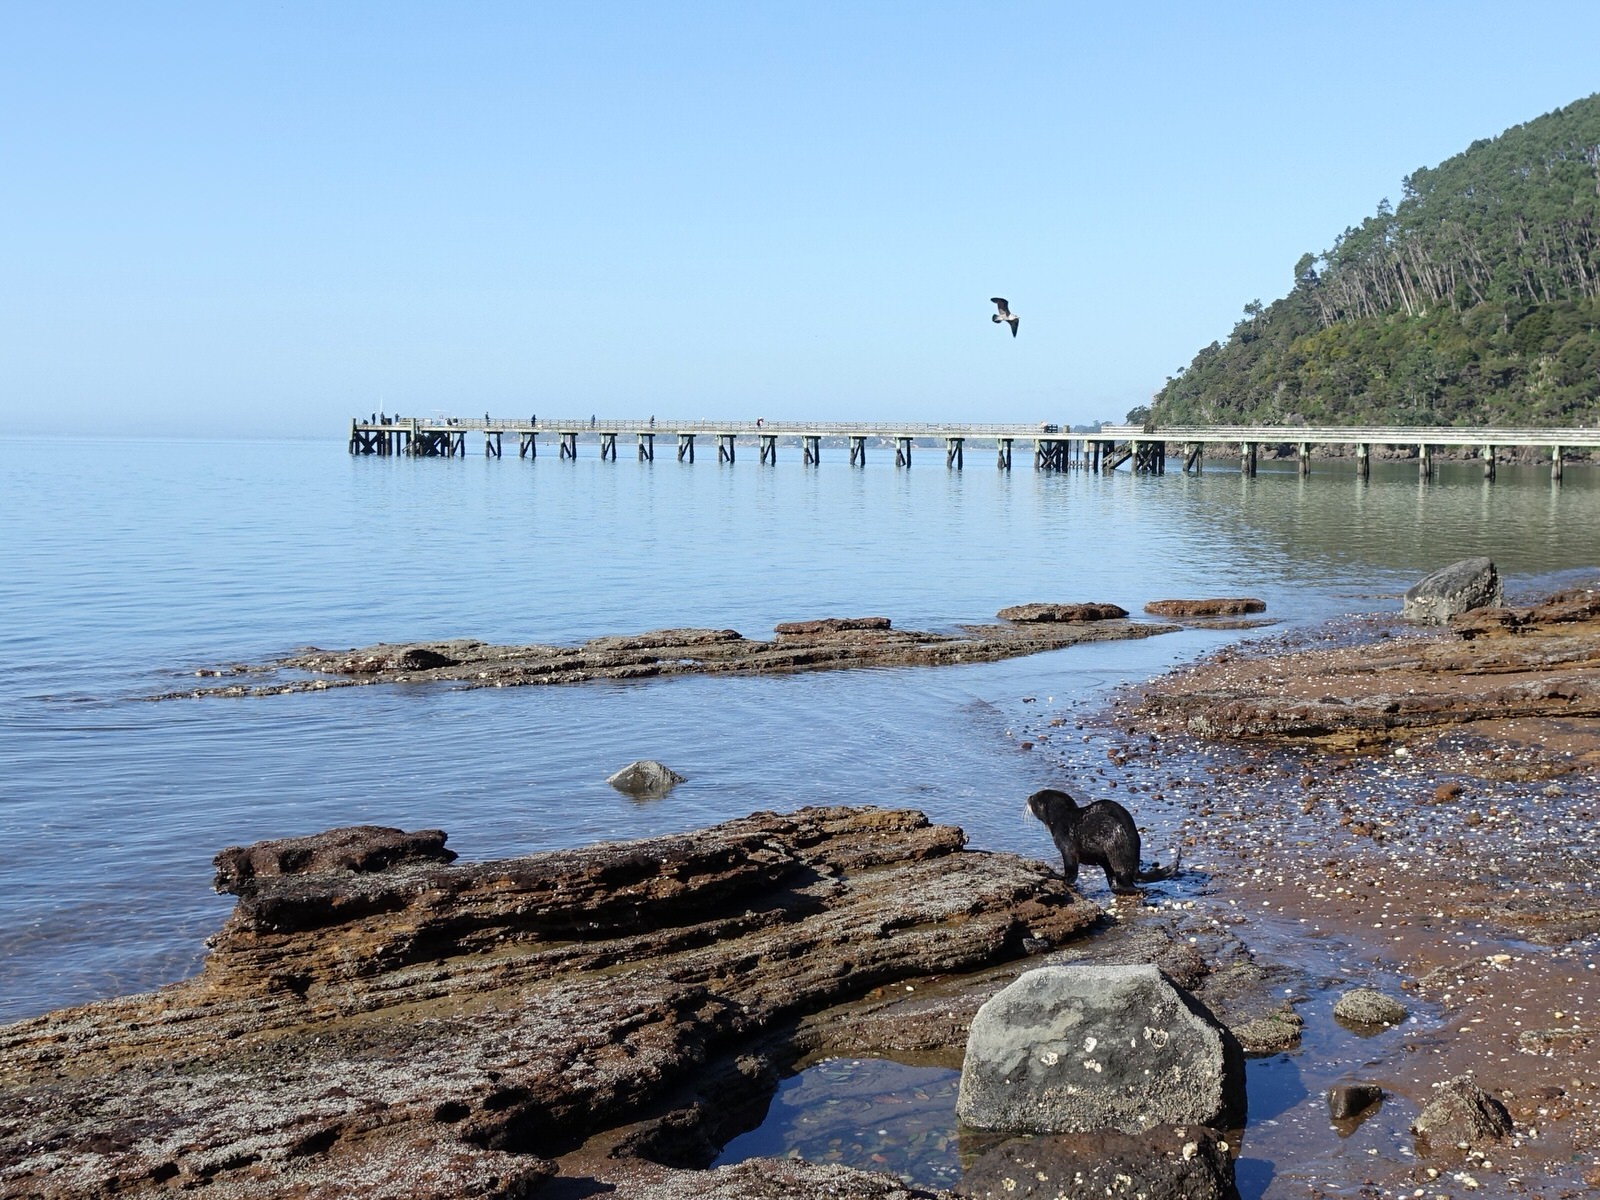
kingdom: Animalia
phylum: Chordata
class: Mammalia
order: Carnivora
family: Otariidae
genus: Arctocephalus
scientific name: Arctocephalus forsteri
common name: New zealand fur seal
